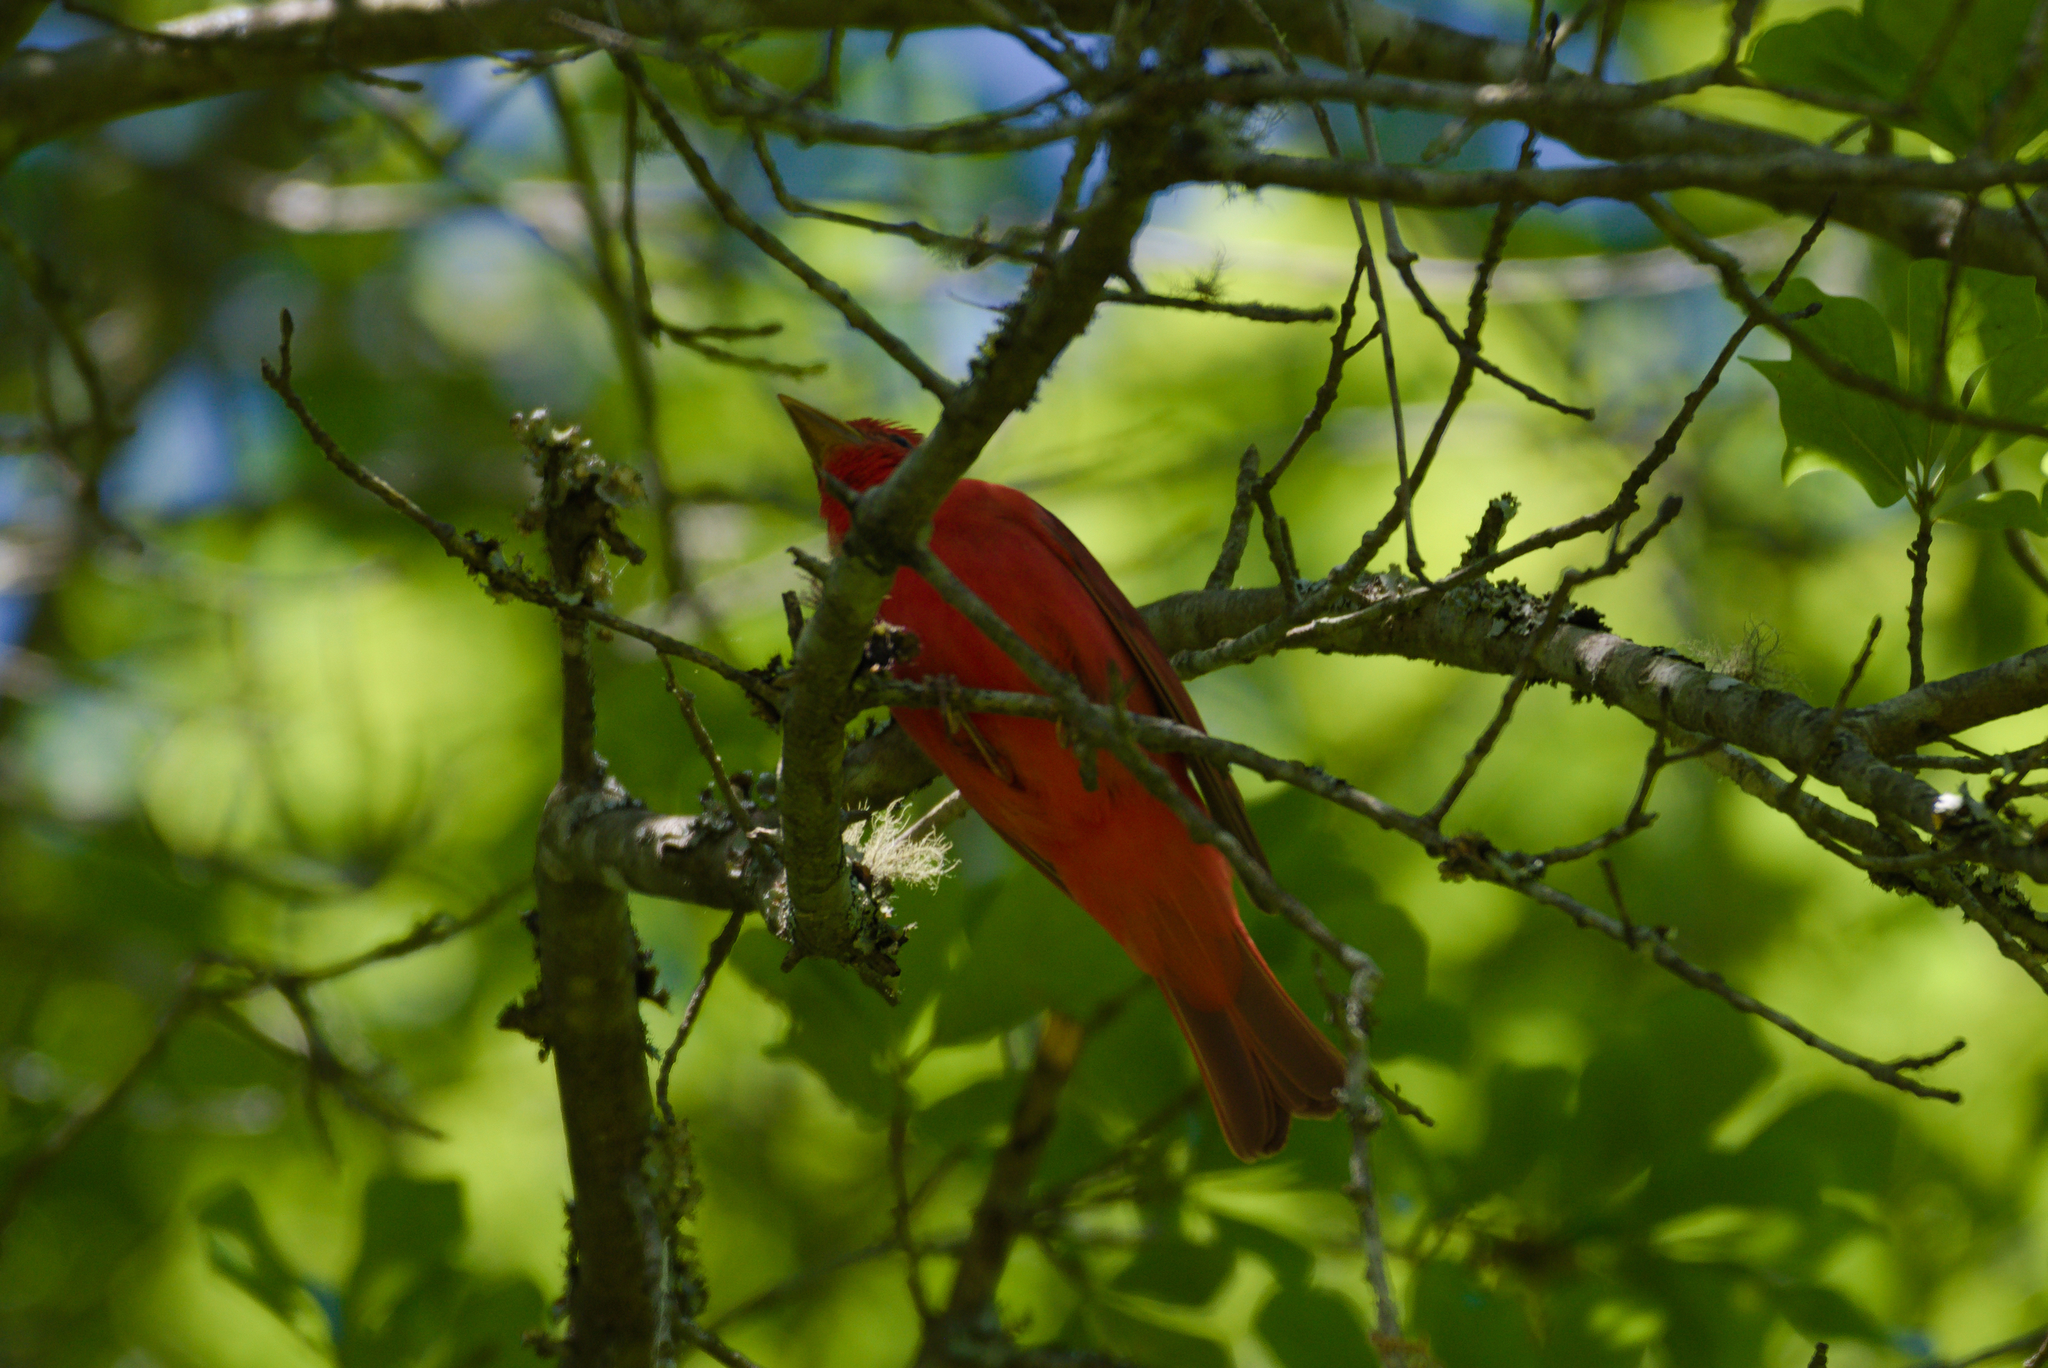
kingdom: Animalia
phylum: Chordata
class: Aves
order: Passeriformes
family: Cardinalidae
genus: Piranga
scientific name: Piranga rubra
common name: Summer tanager
